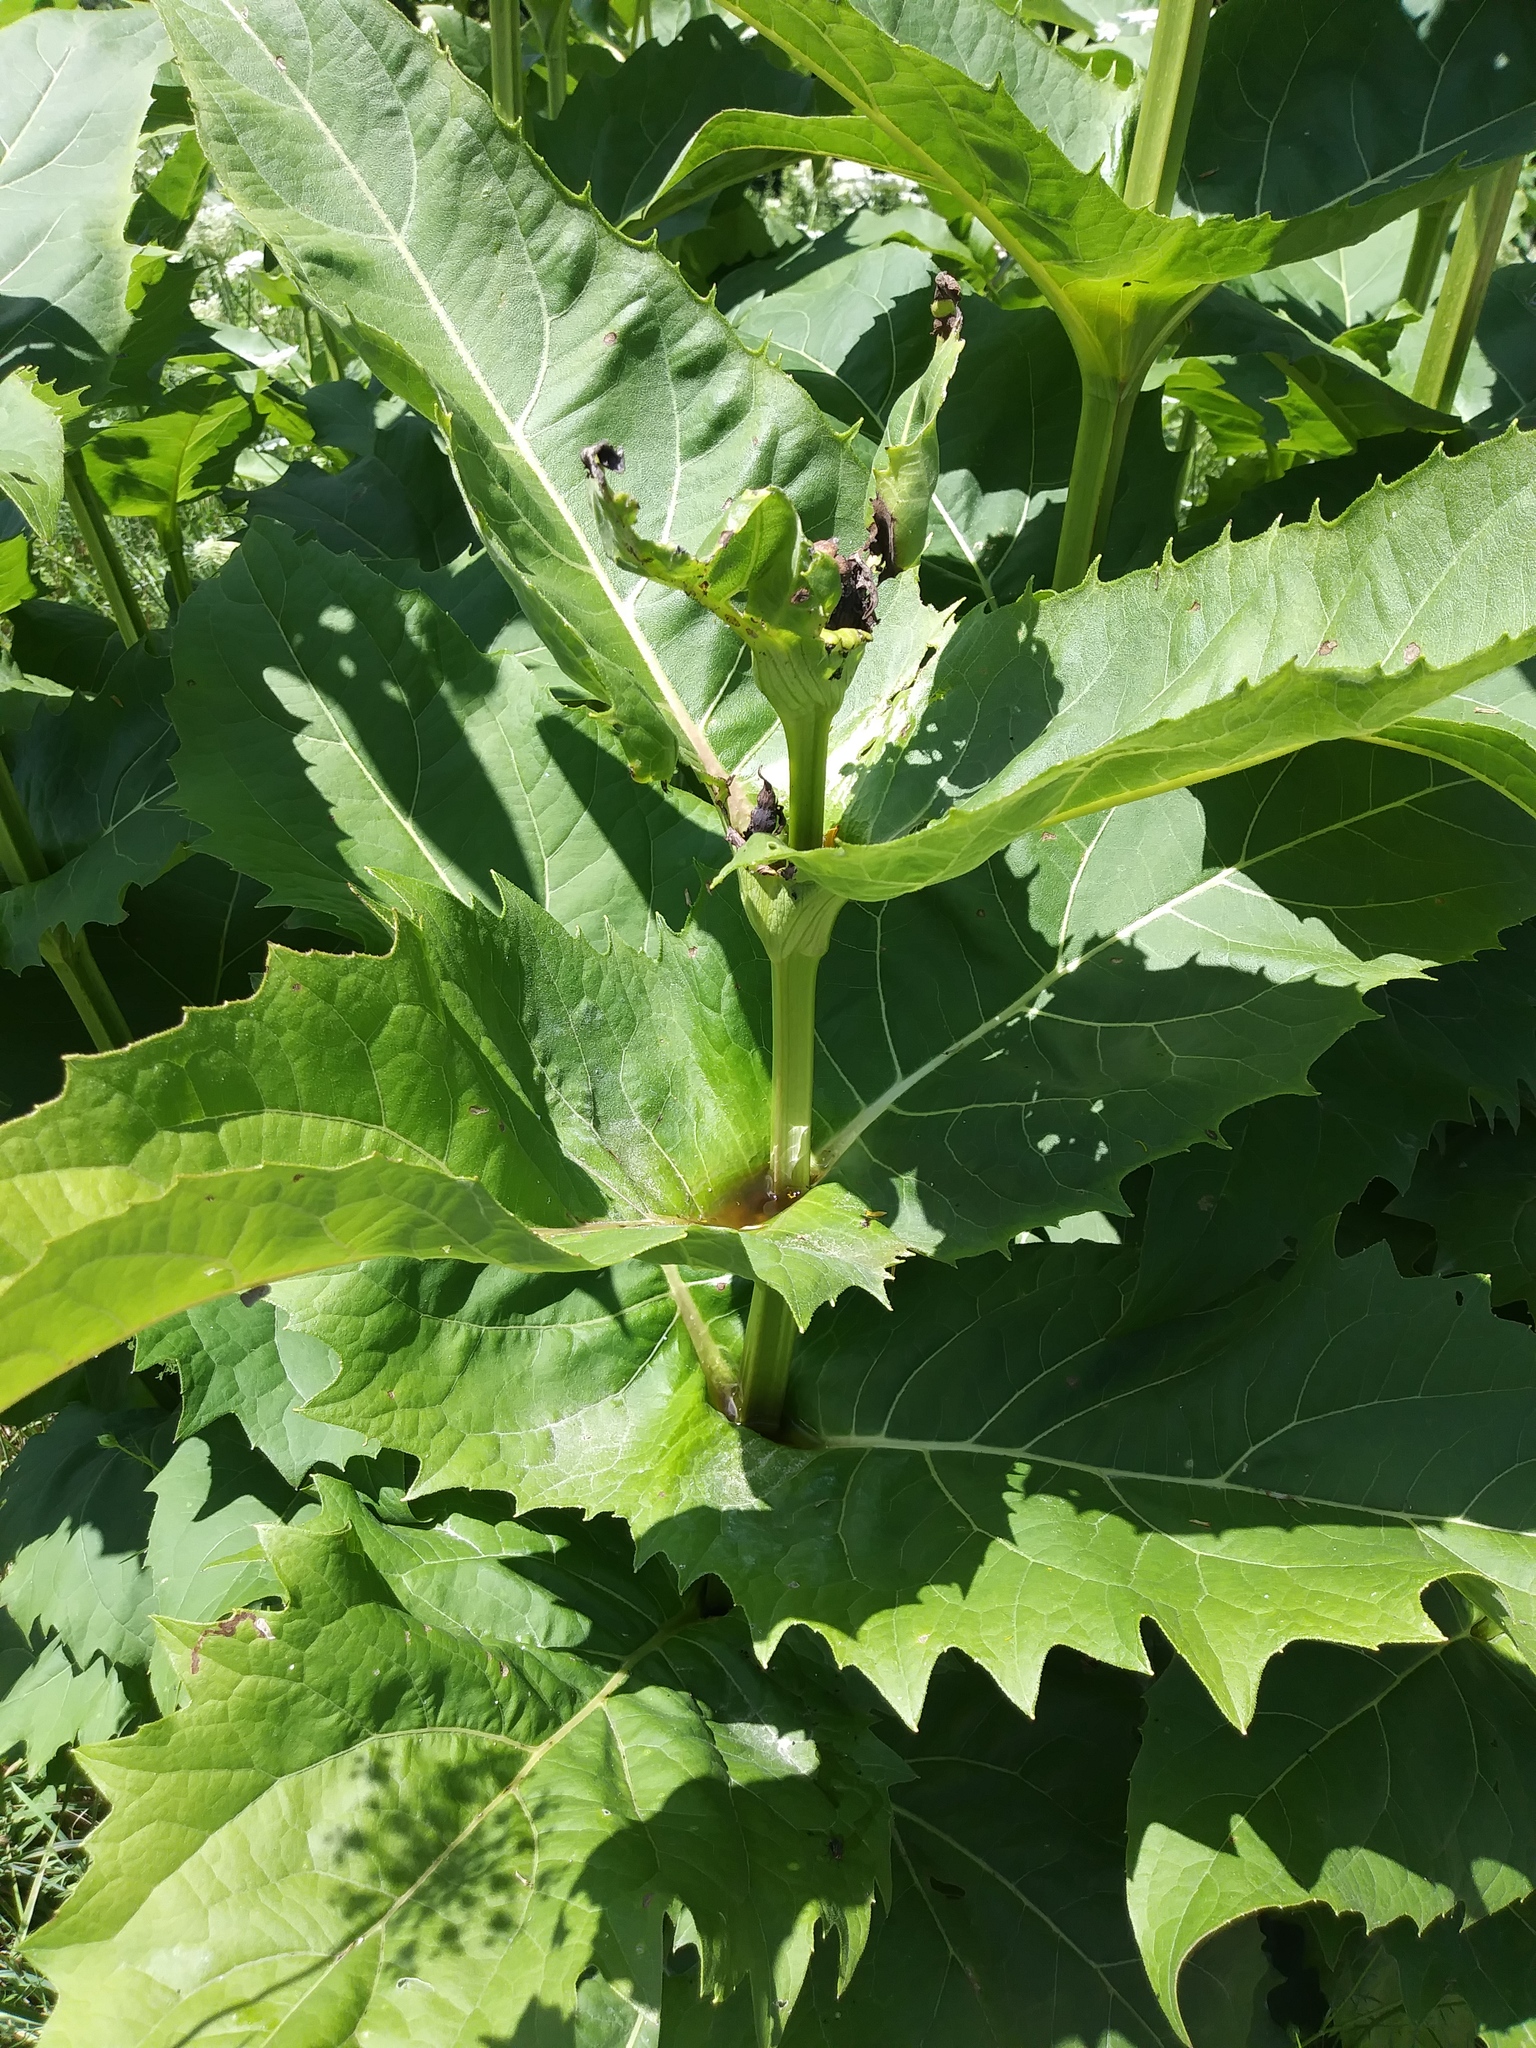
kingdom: Plantae
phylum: Tracheophyta
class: Magnoliopsida
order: Asterales
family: Asteraceae
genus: Silphium
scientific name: Silphium perfoliatum
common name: Cup-plant
